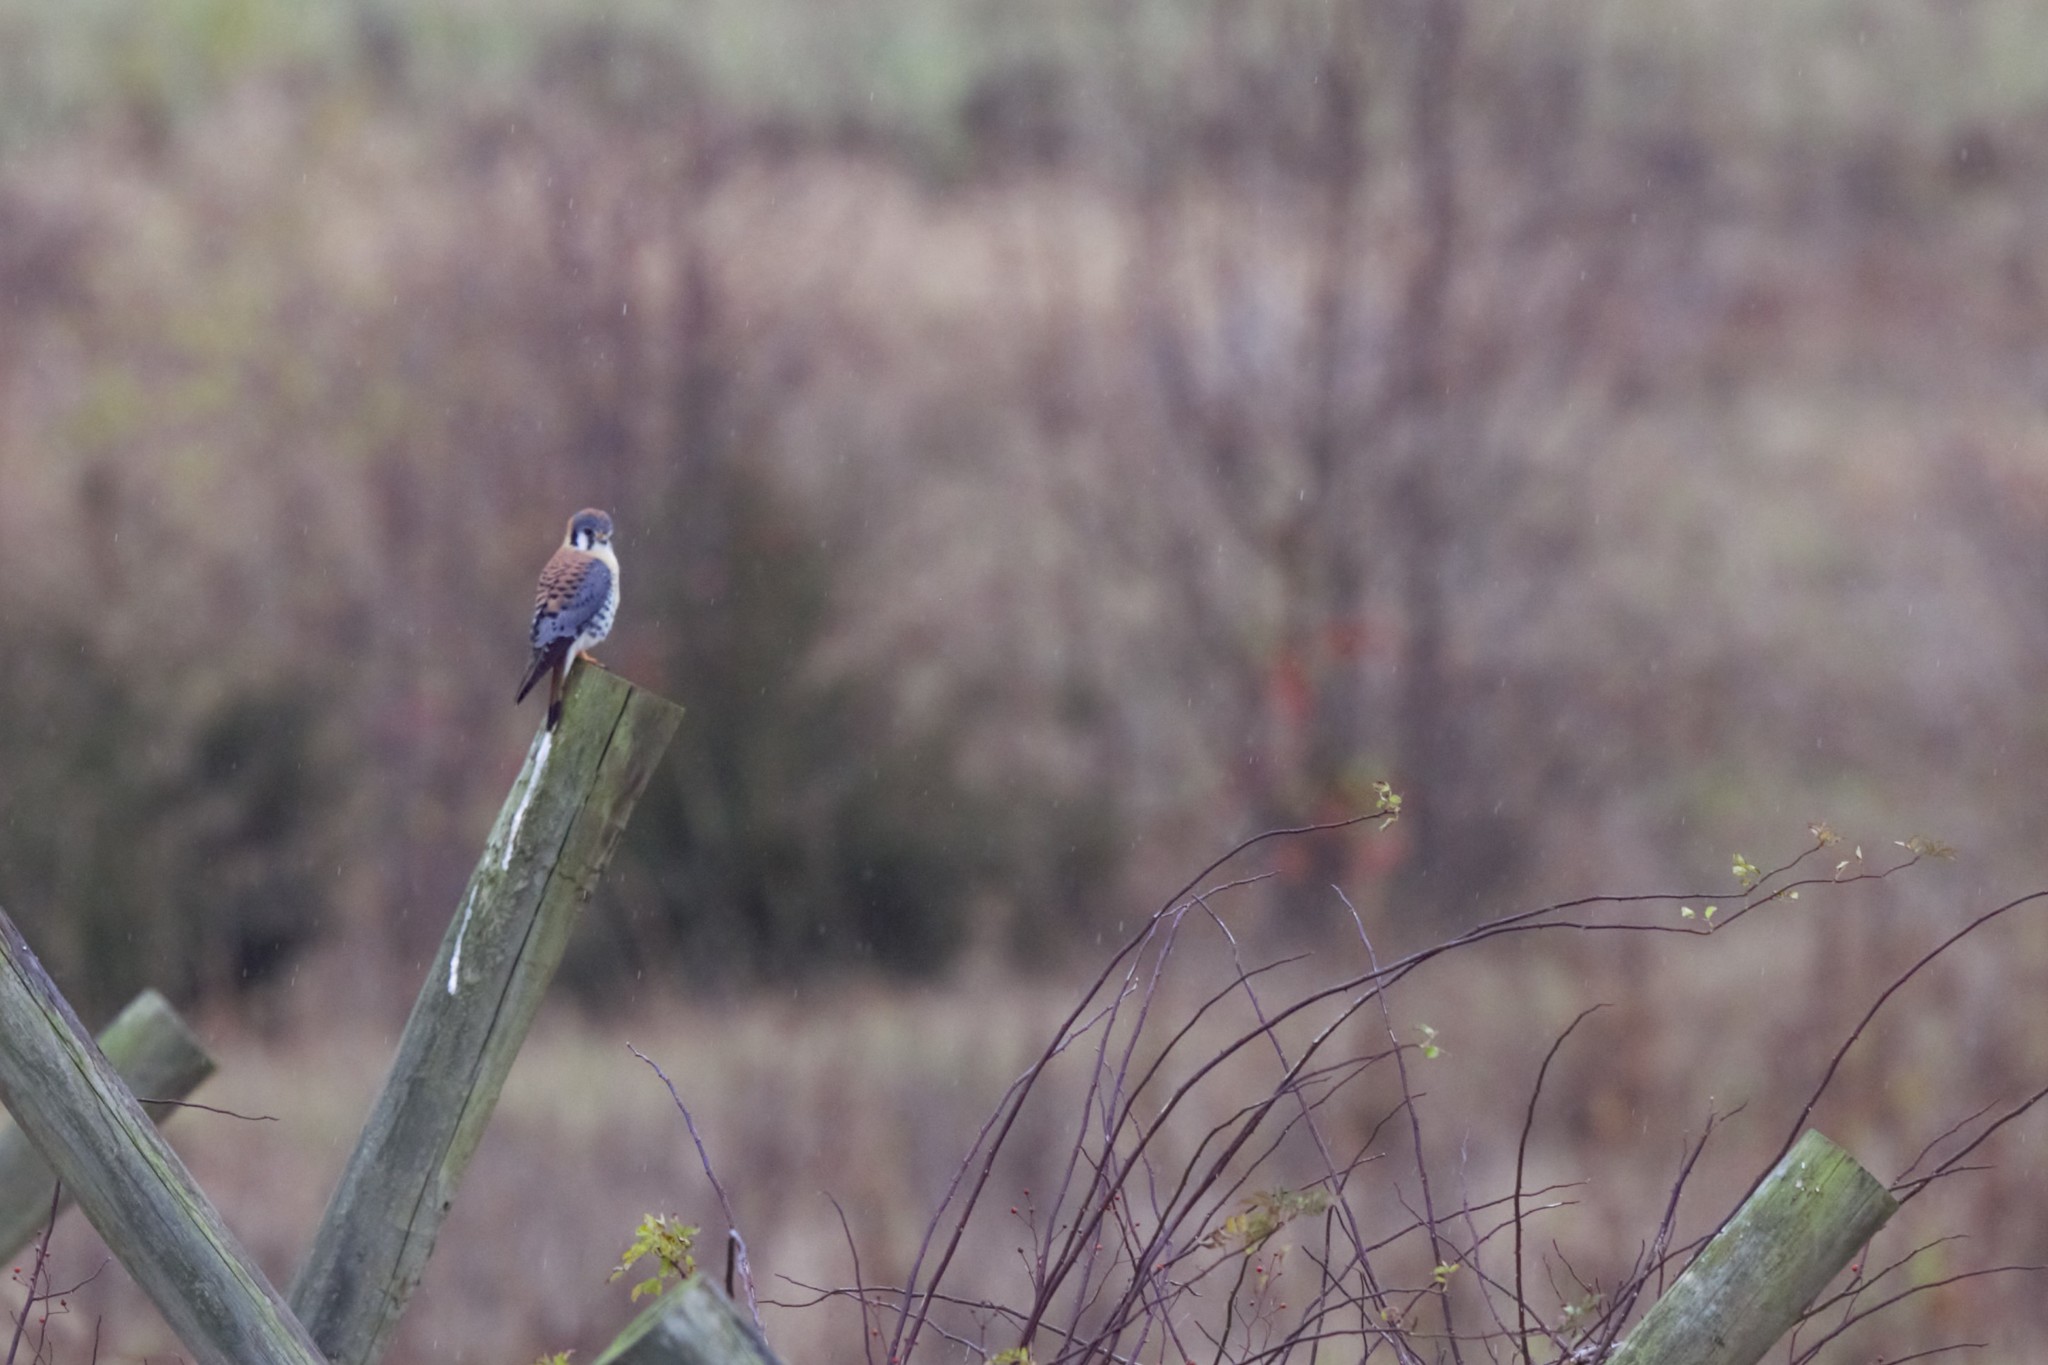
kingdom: Animalia
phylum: Chordata
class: Aves
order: Falconiformes
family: Falconidae
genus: Falco
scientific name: Falco sparverius
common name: American kestrel
